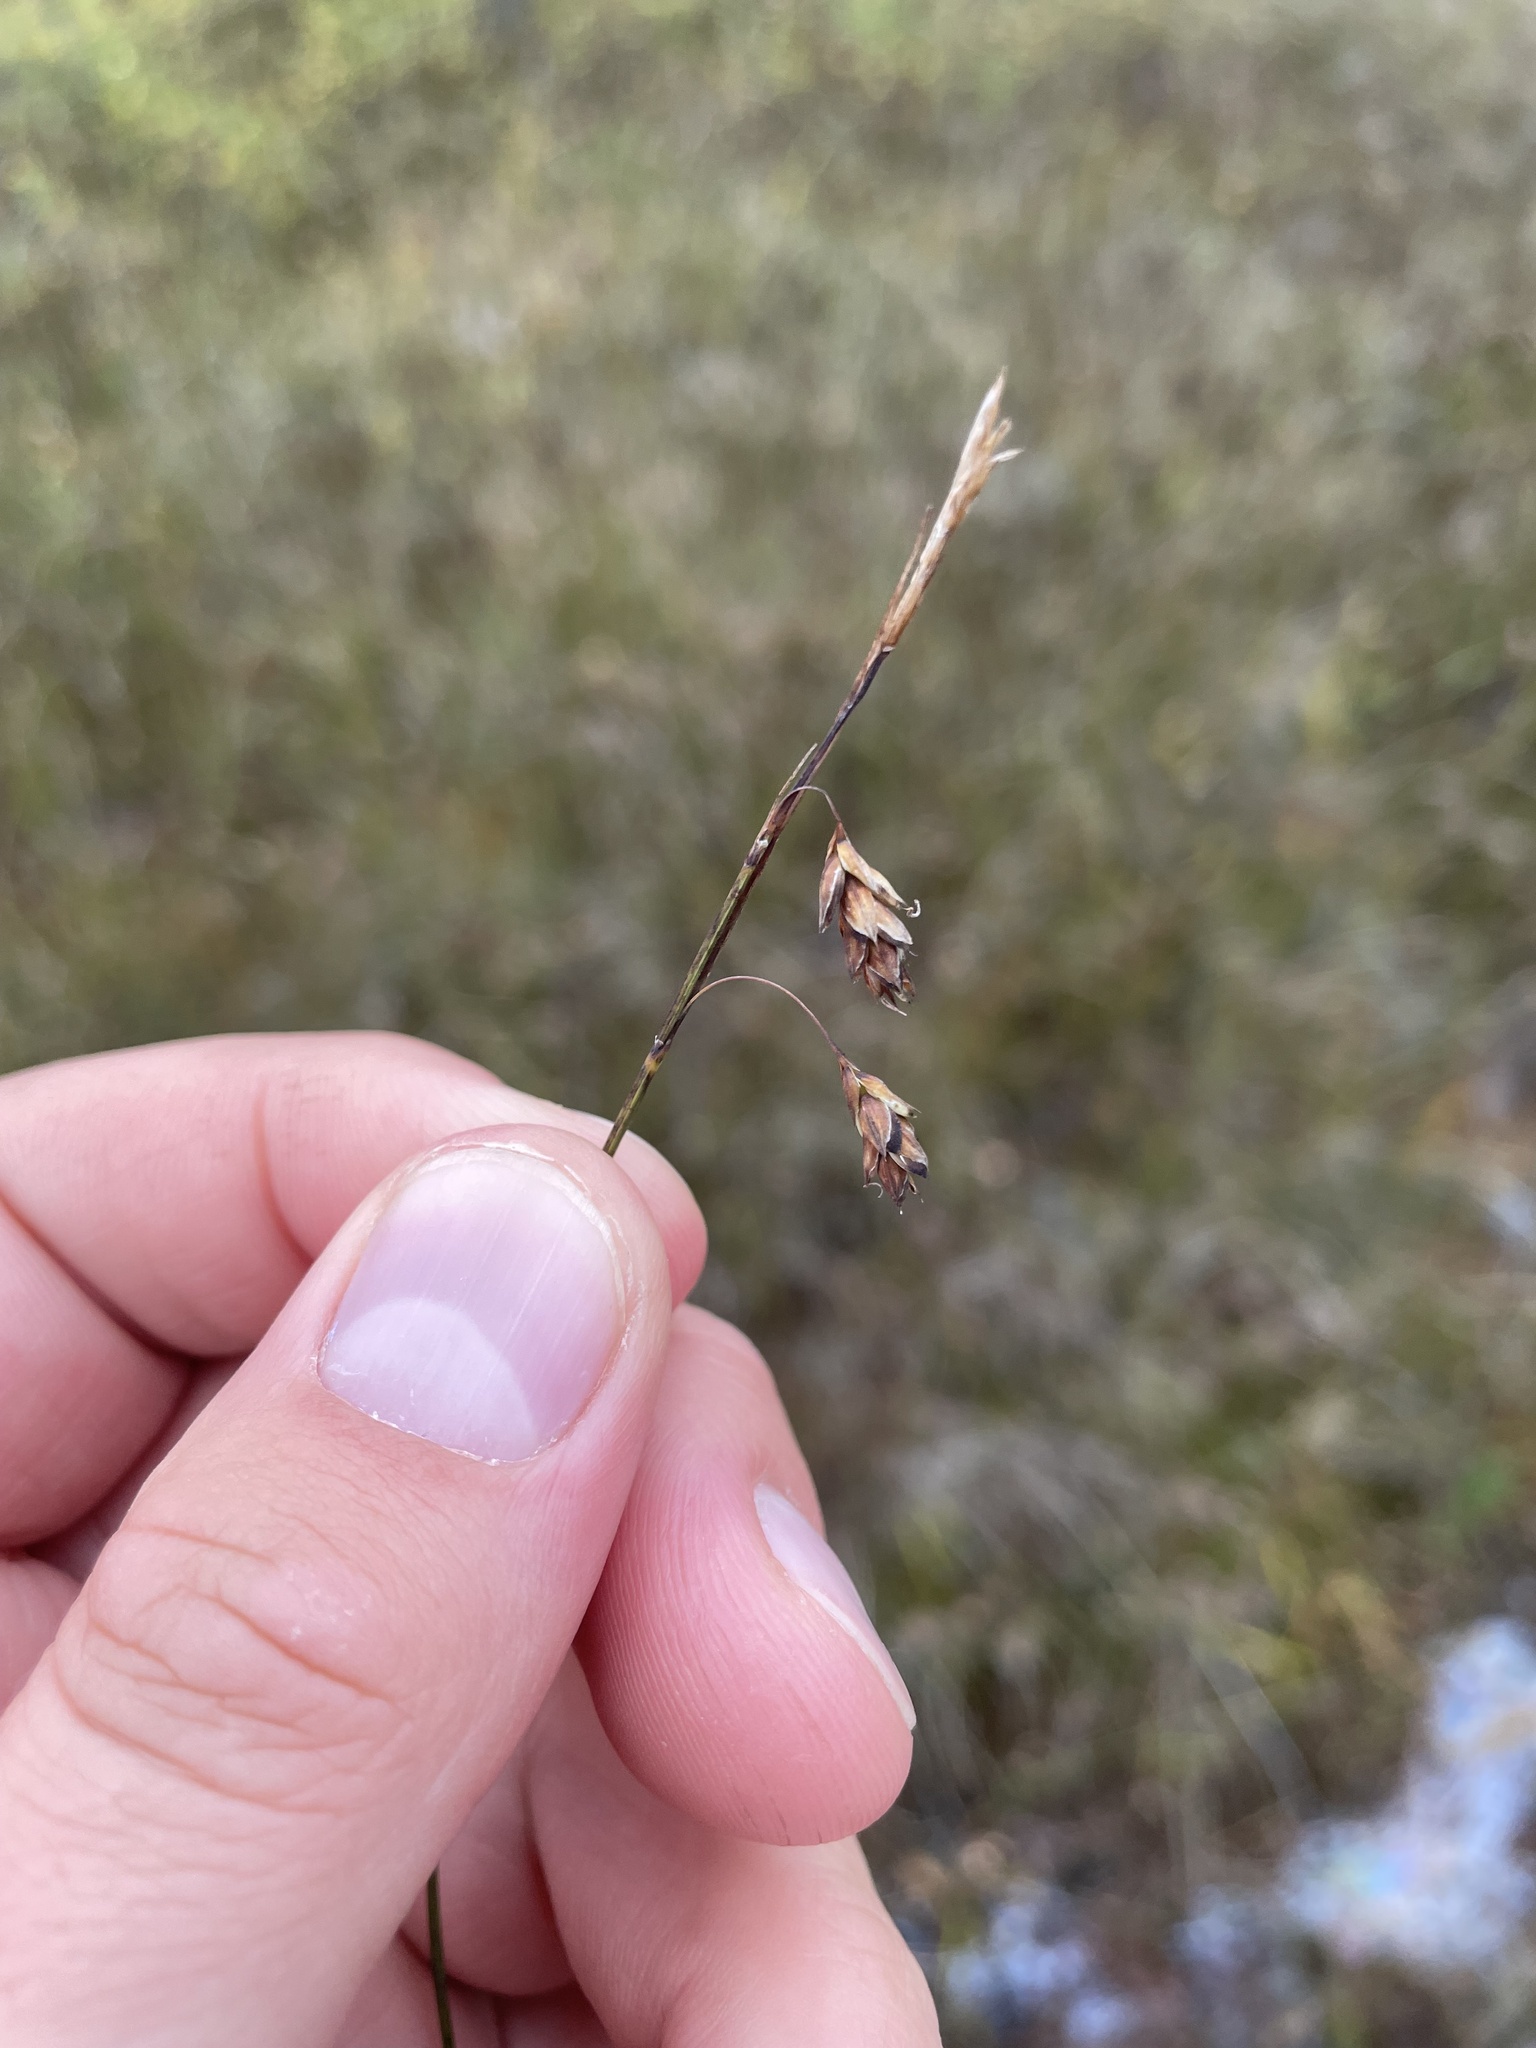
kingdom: Plantae
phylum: Tracheophyta
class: Liliopsida
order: Poales
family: Cyperaceae
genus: Carex
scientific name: Carex limosa
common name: Bog sedge
